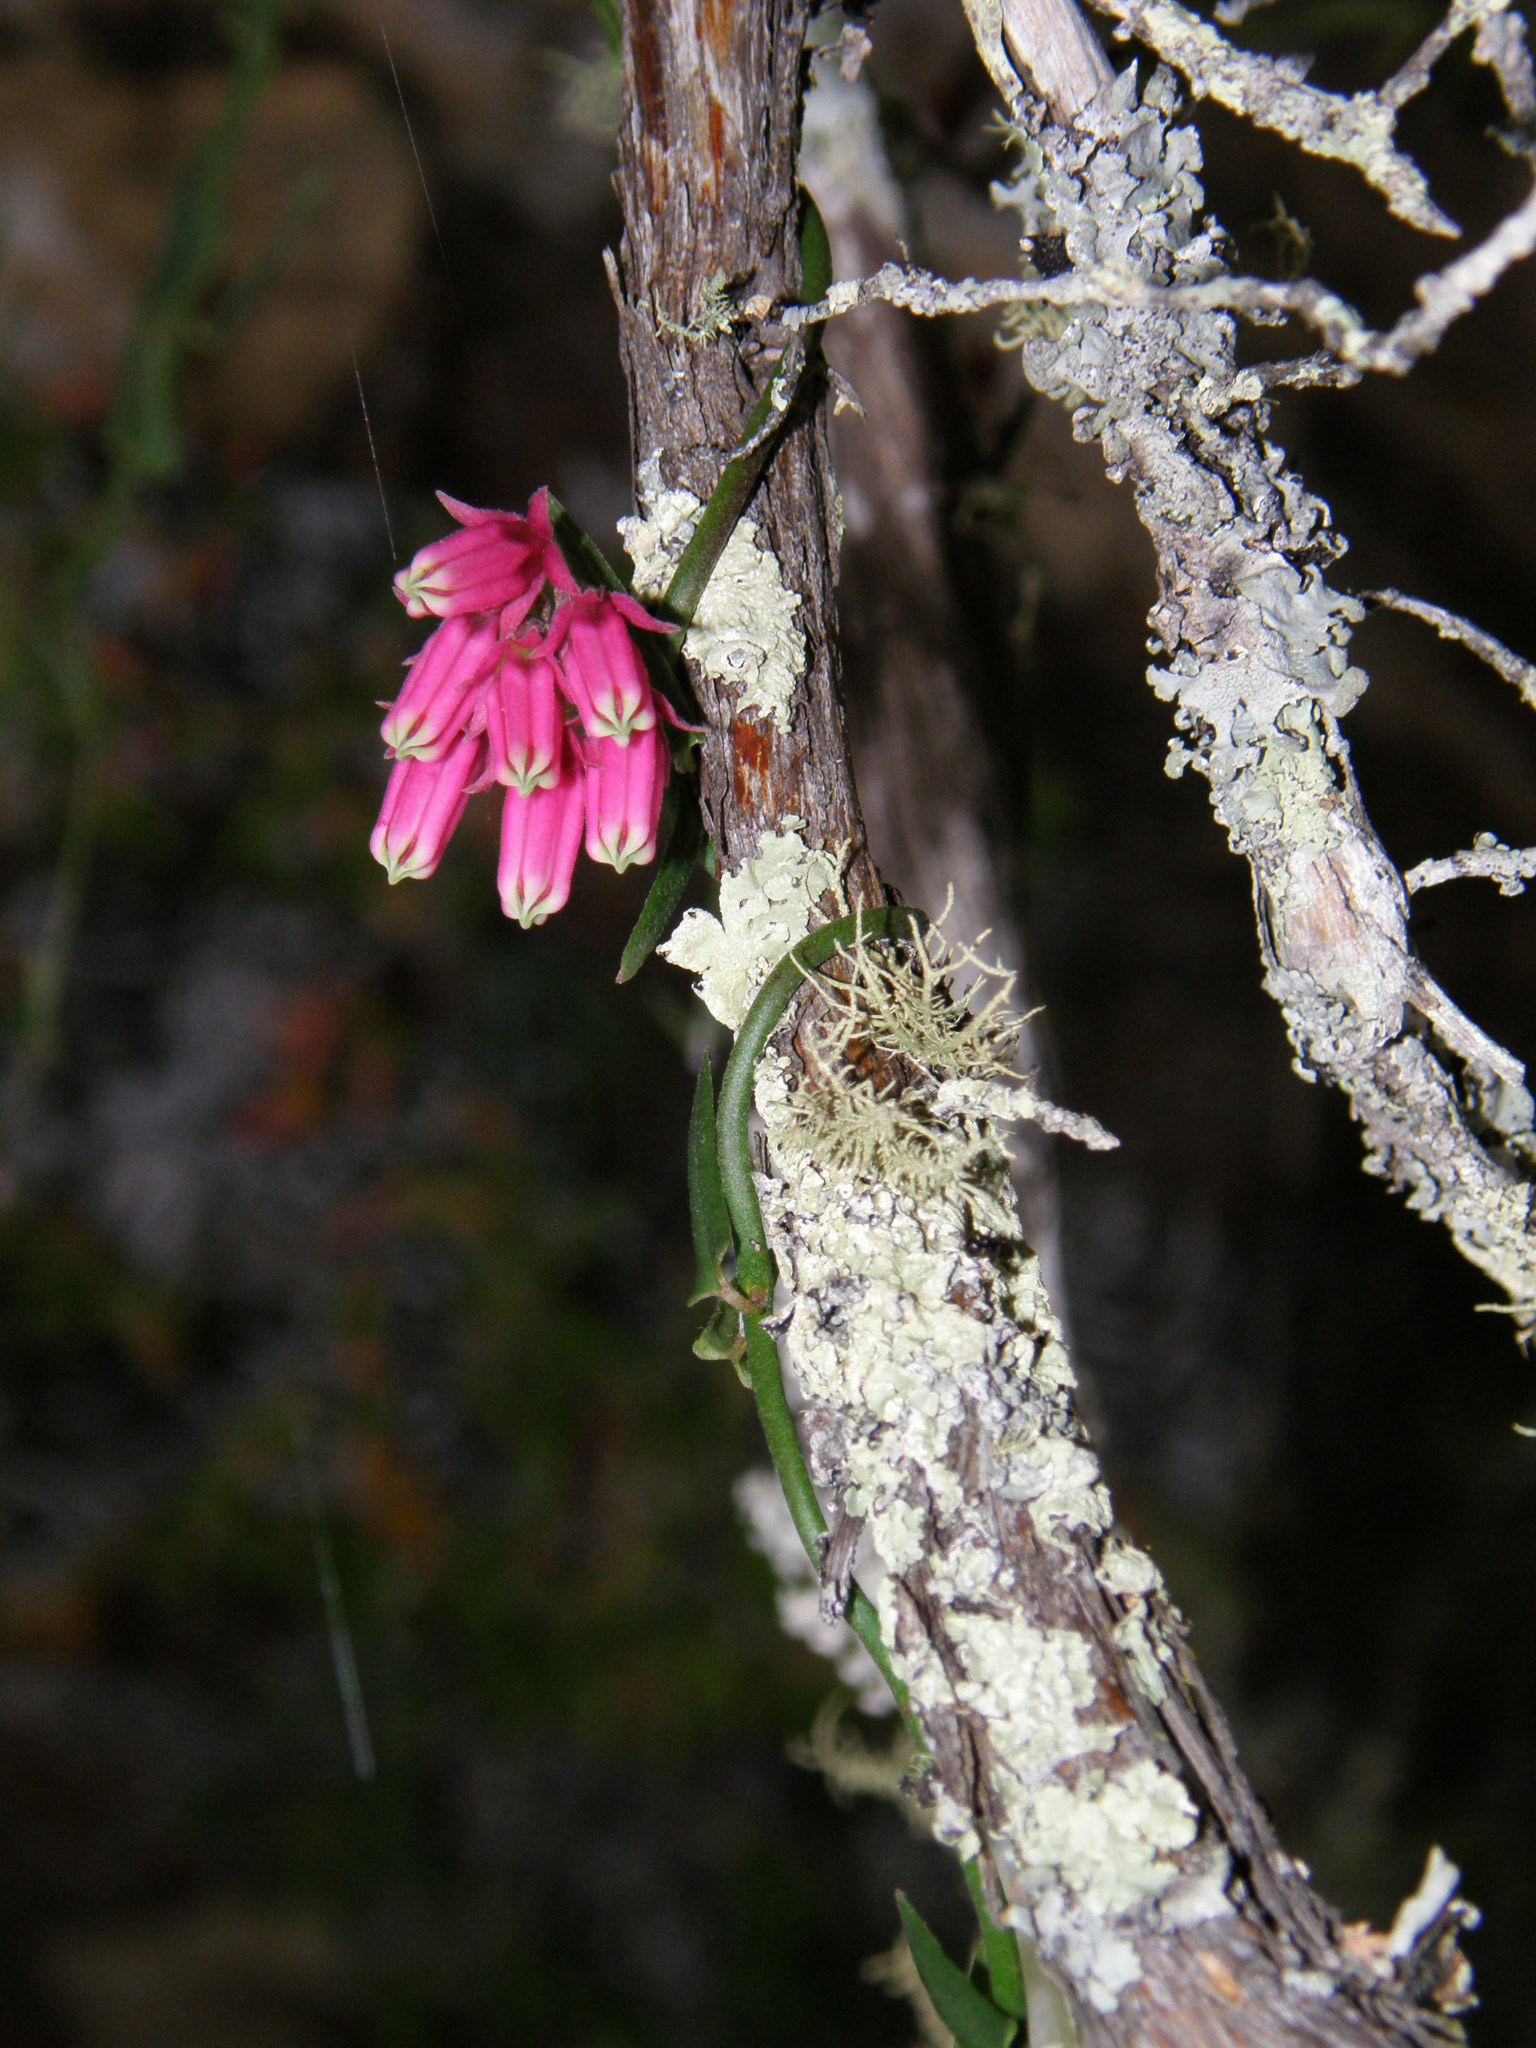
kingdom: Plantae
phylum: Tracheophyta
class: Magnoliopsida
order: Gentianales
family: Apocynaceae
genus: Microloma
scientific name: Microloma sagittatum
